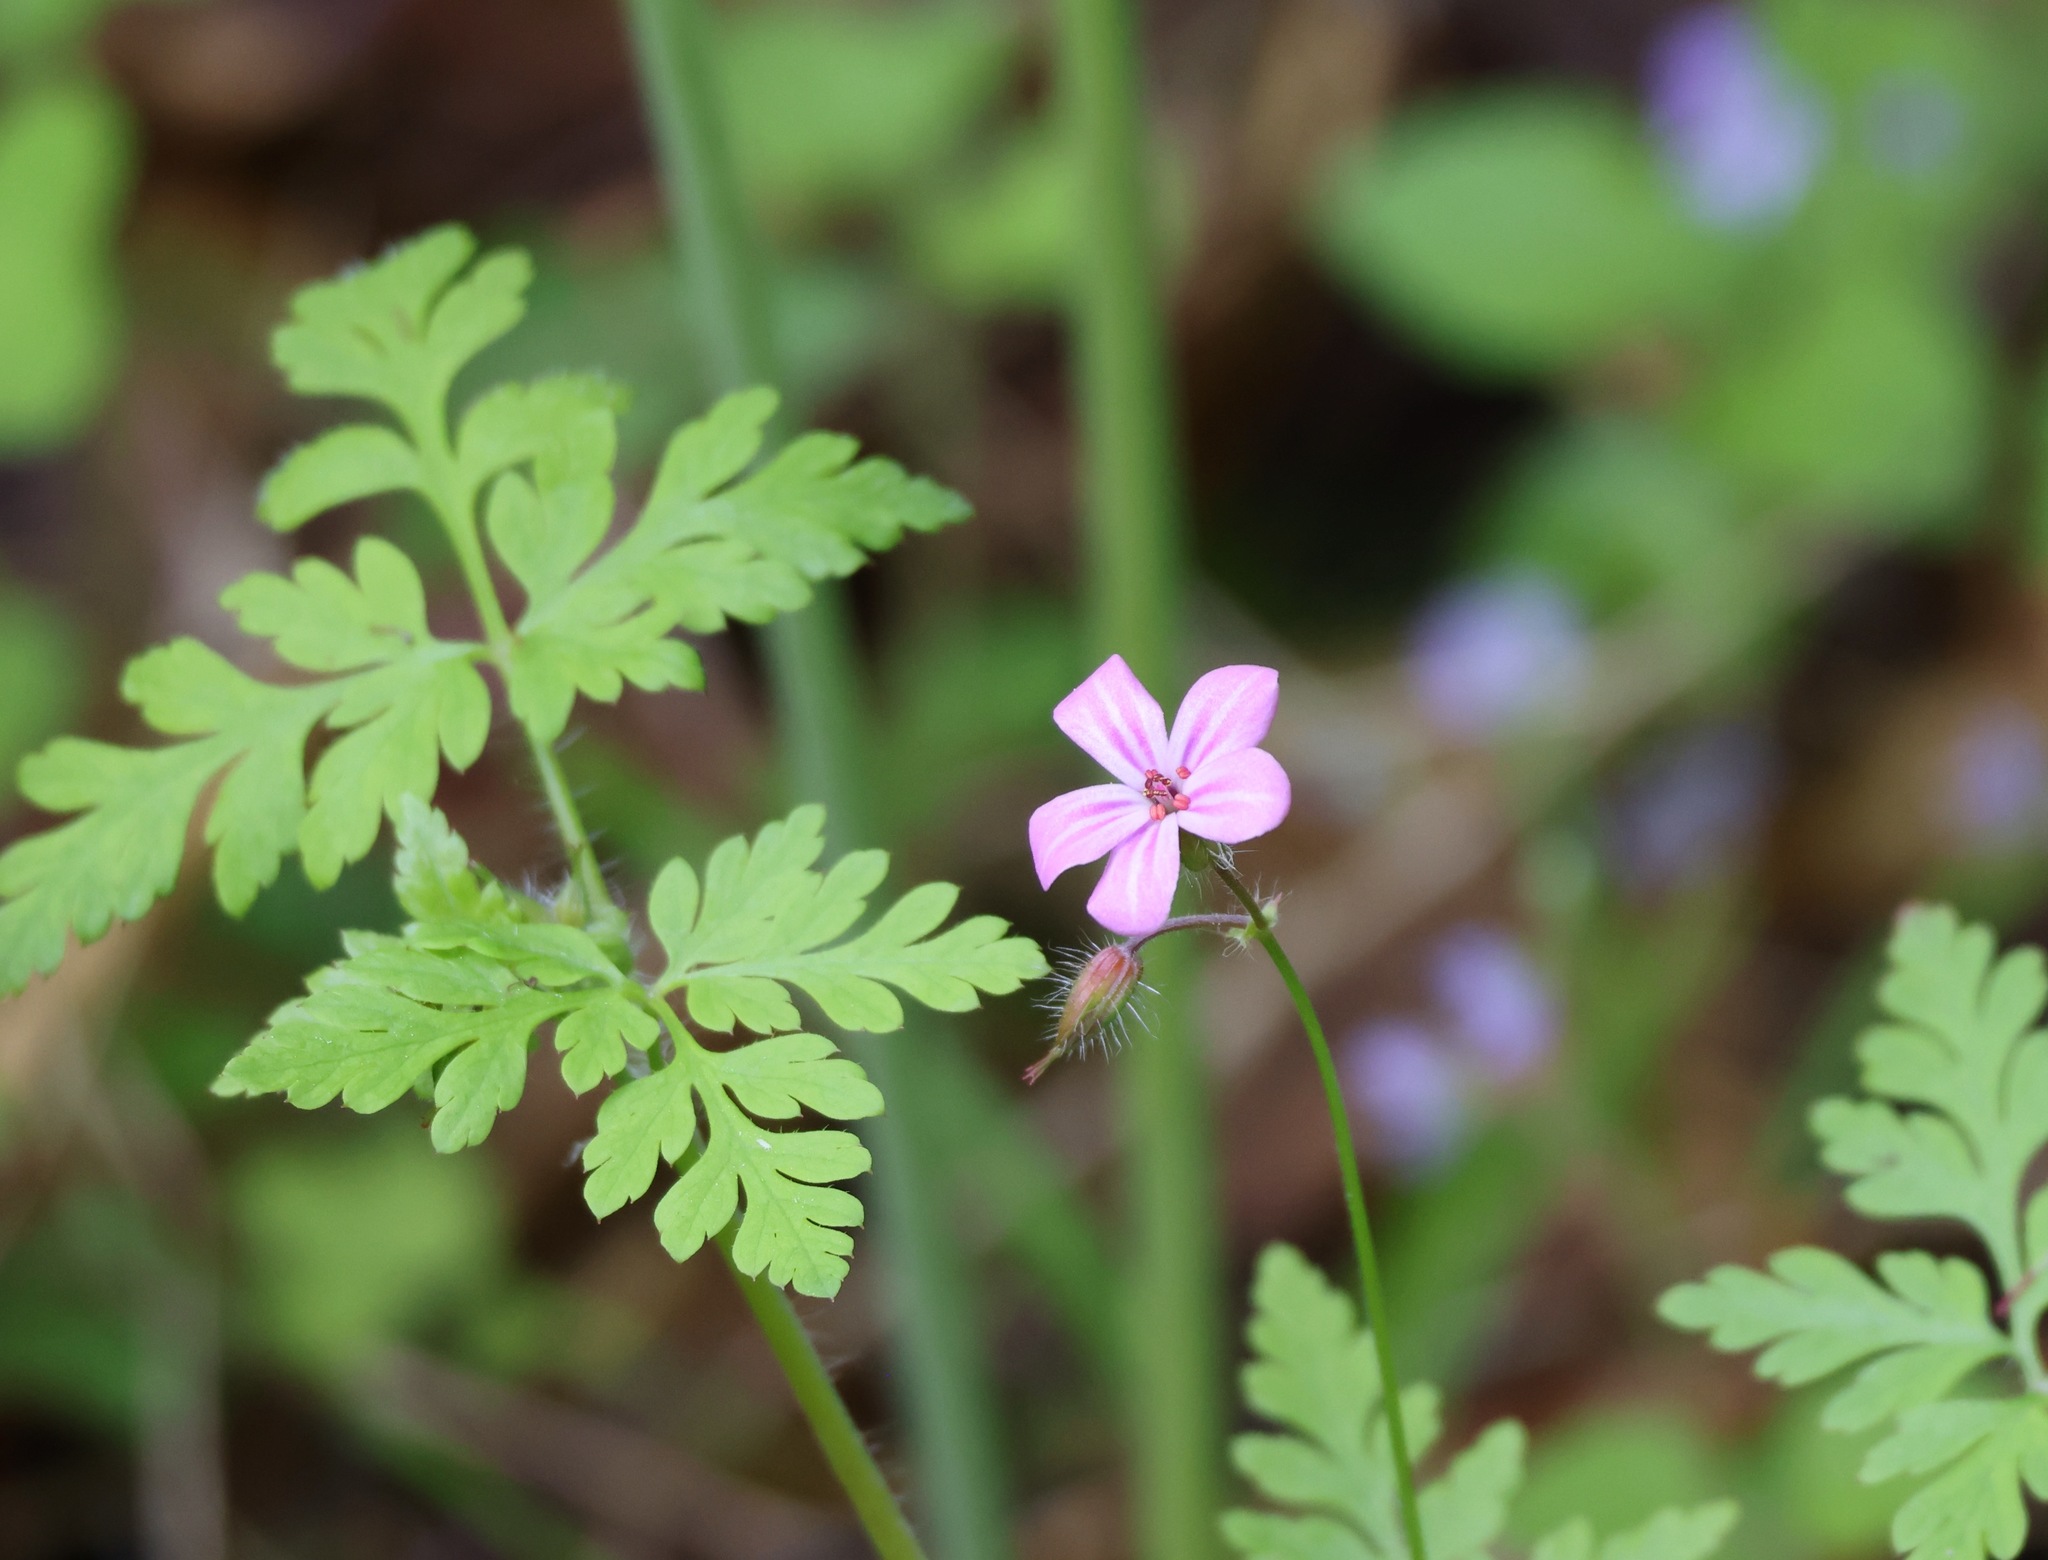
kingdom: Plantae
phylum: Tracheophyta
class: Magnoliopsida
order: Geraniales
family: Geraniaceae
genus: Geranium
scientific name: Geranium robertianum
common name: Herb-robert
